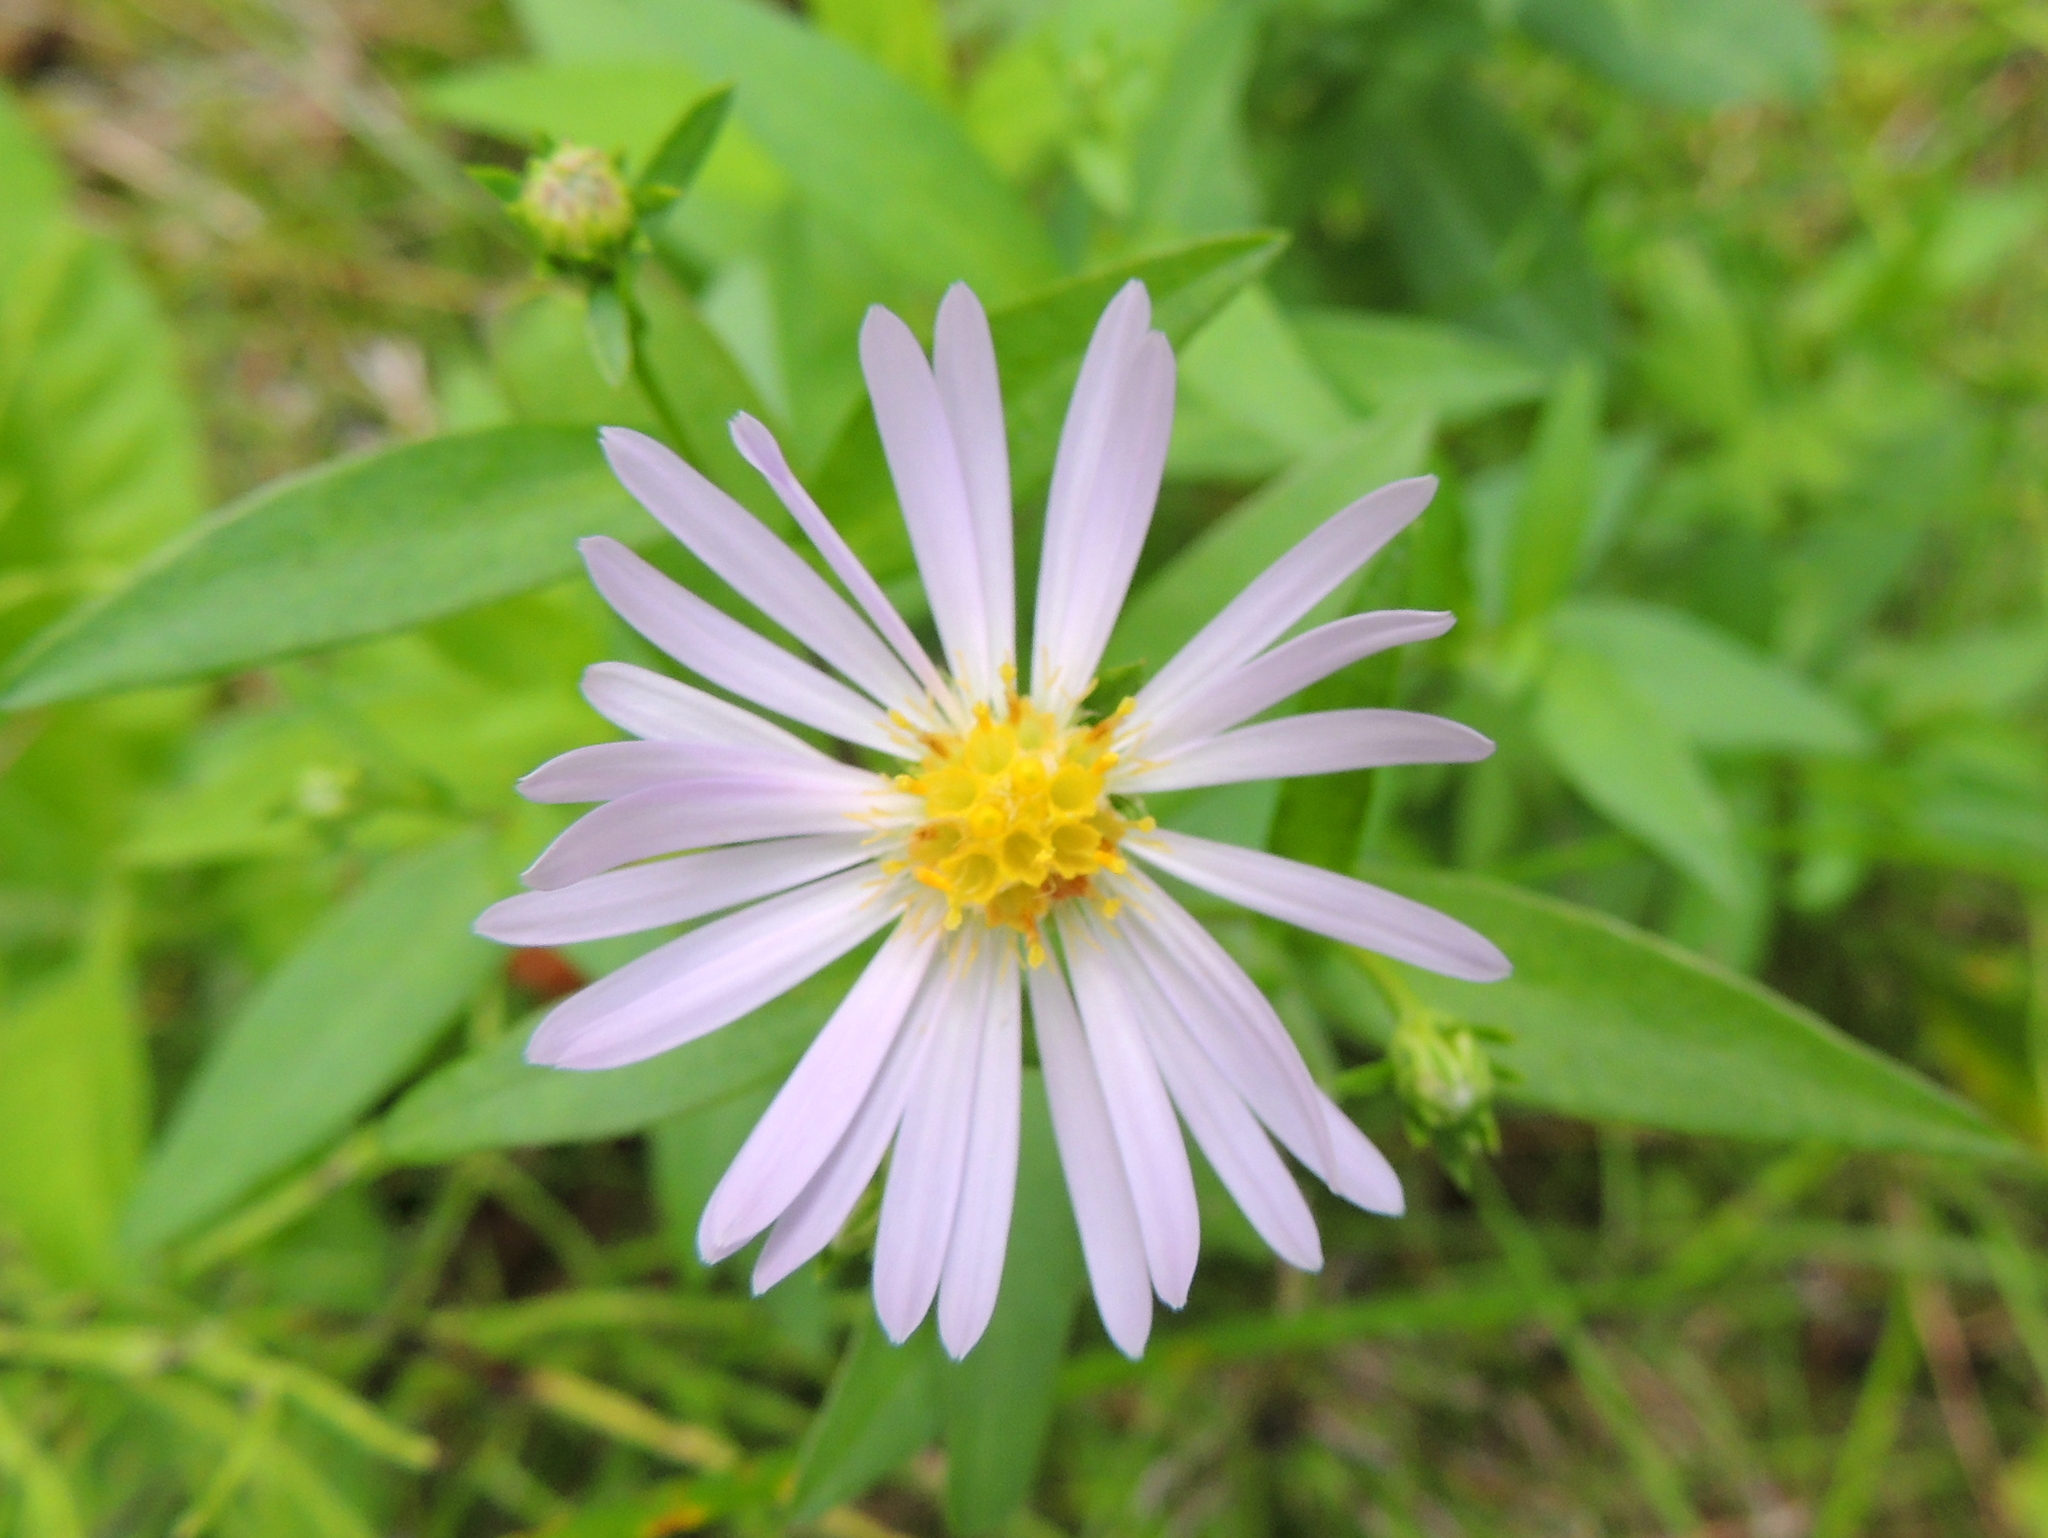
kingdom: Plantae
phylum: Tracheophyta
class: Magnoliopsida
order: Asterales
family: Asteraceae
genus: Symphyotrichum
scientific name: Symphyotrichum novi-belgii
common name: Michaelmas daisy
